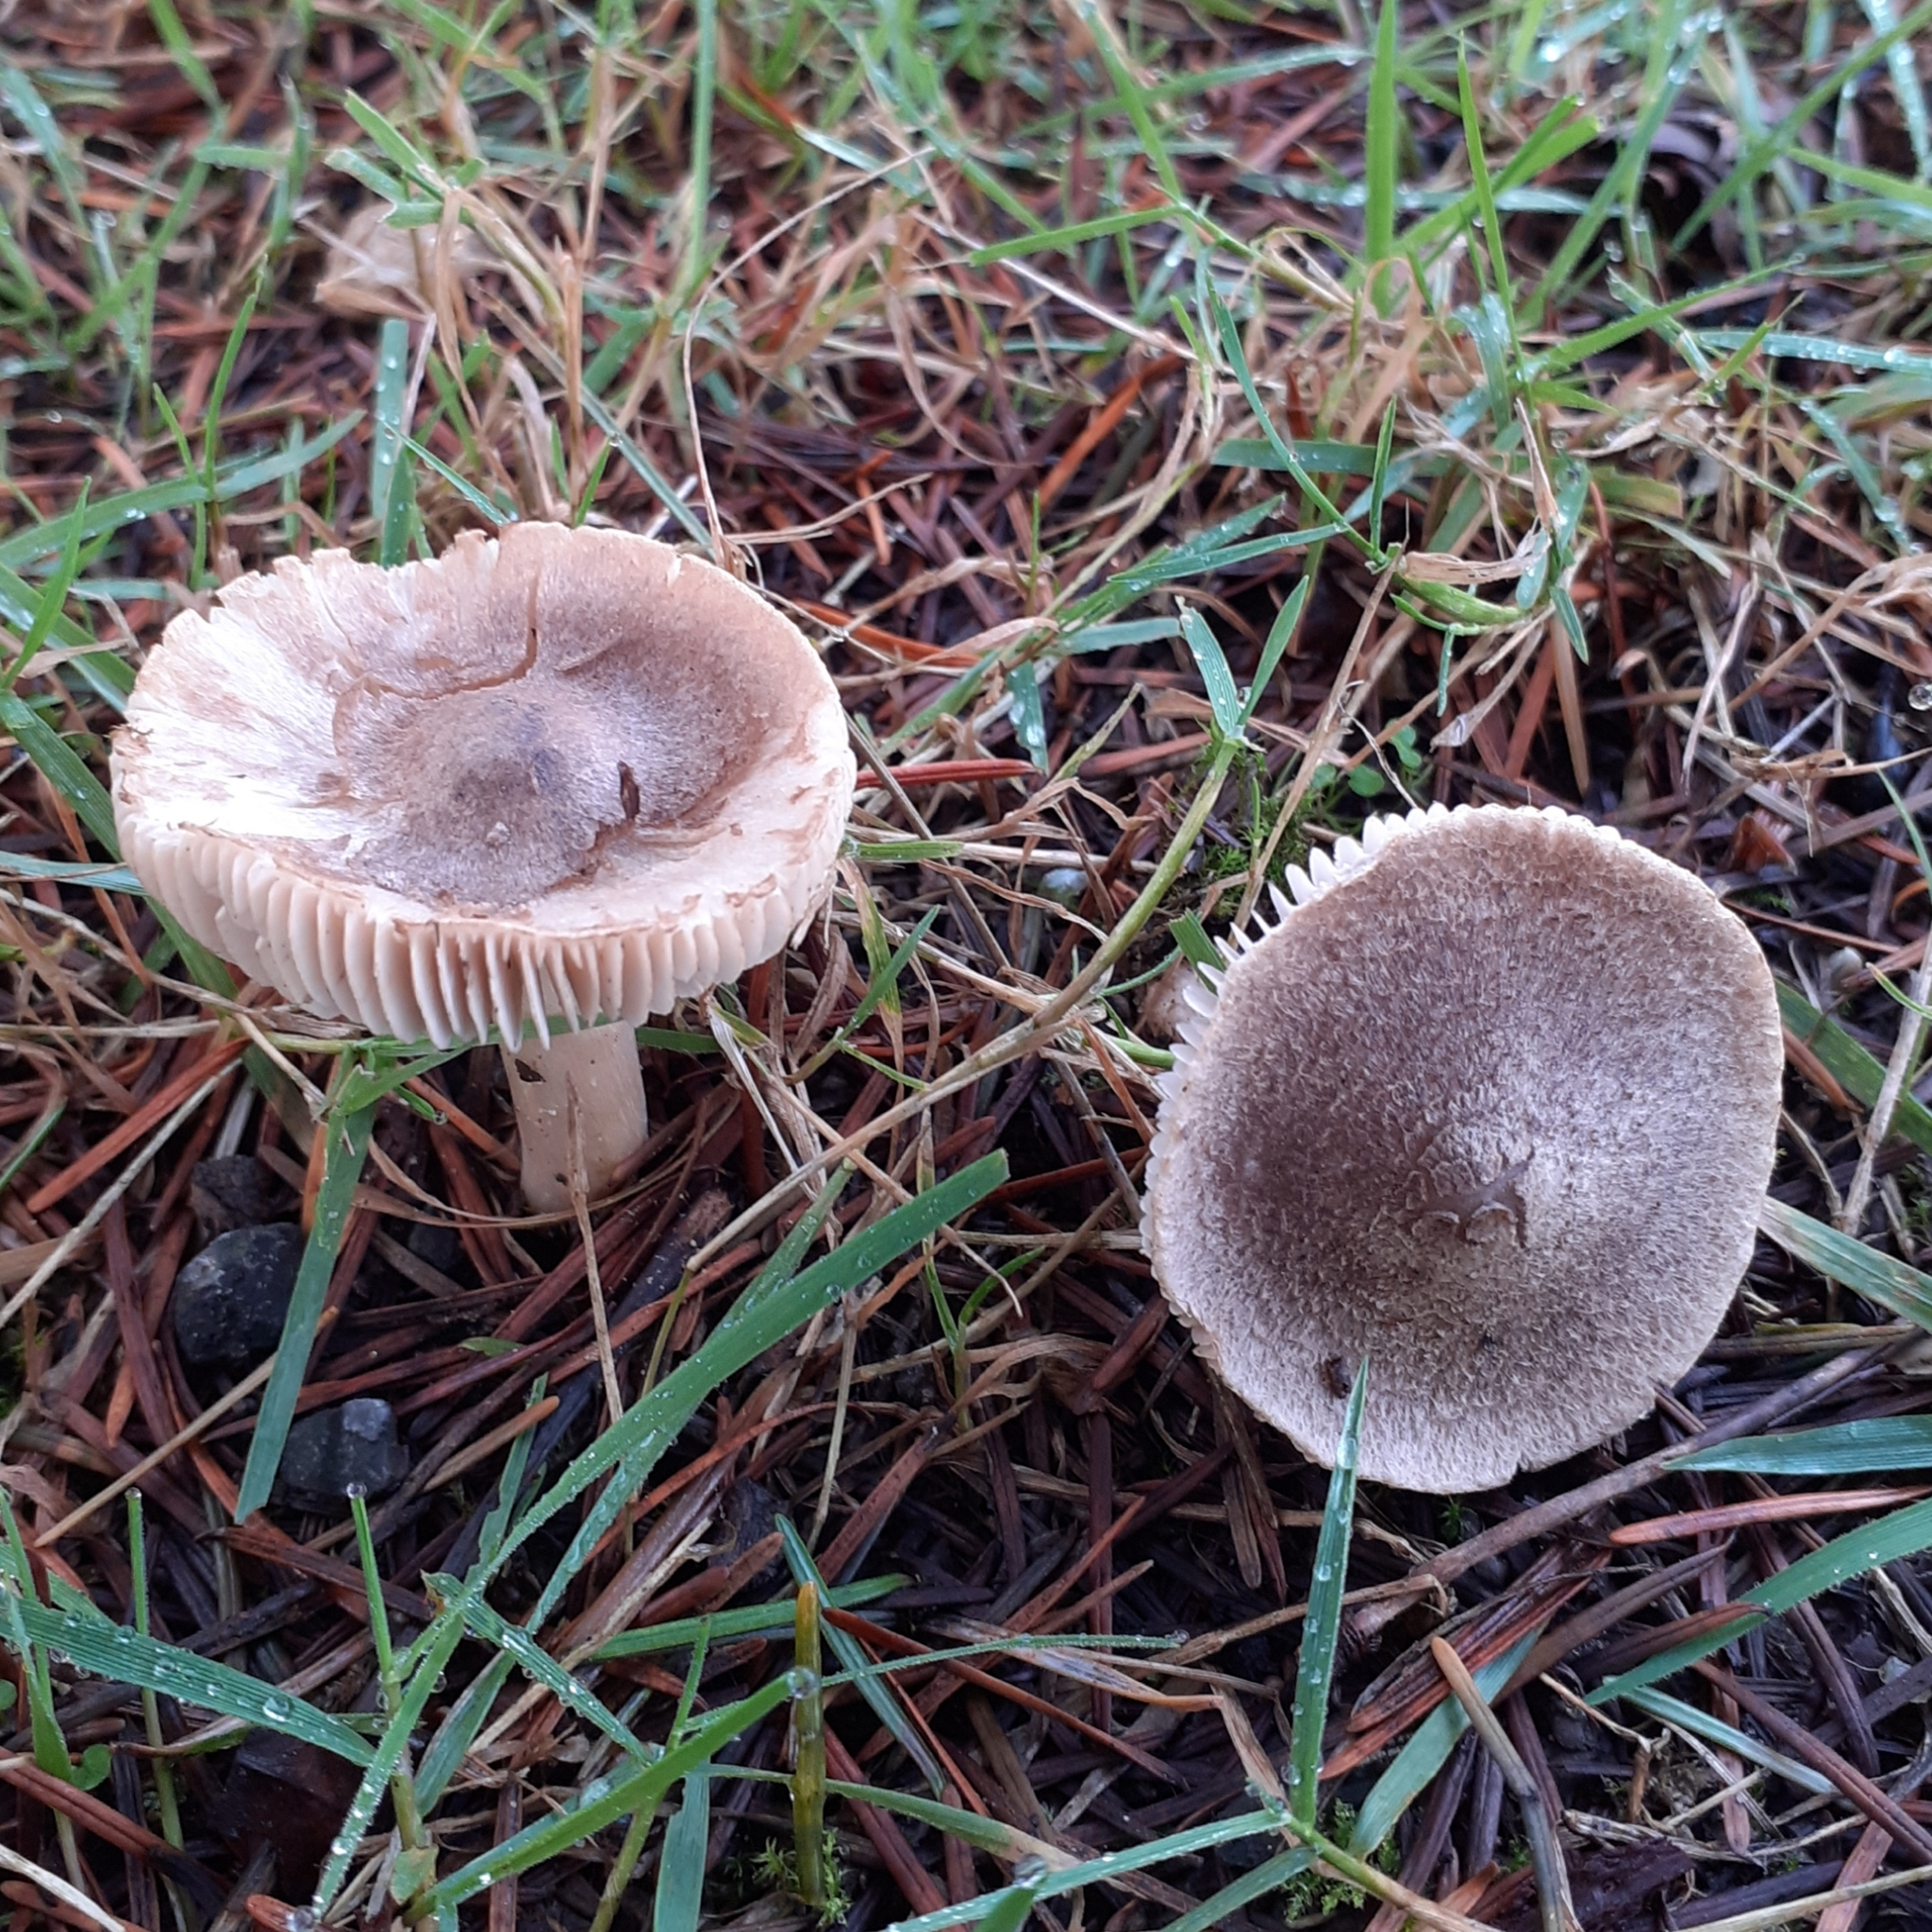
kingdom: Fungi
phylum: Basidiomycota
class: Agaricomycetes
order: Agaricales
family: Tricholomataceae
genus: Tricholoma
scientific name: Tricholoma terreum
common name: Grey knight
